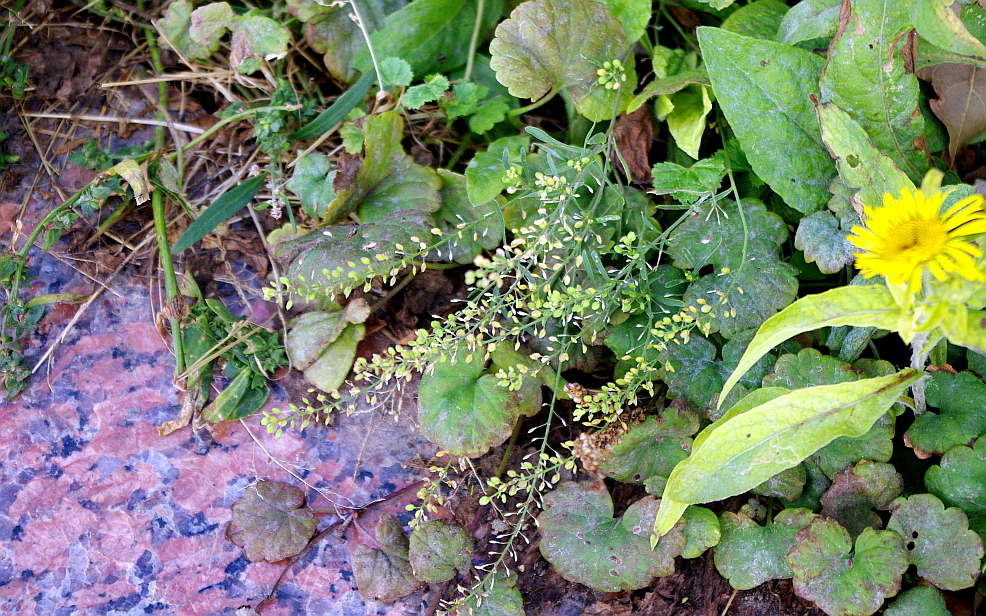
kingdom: Plantae
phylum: Tracheophyta
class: Magnoliopsida
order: Brassicales
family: Brassicaceae
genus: Lepidium
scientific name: Lepidium ruderale
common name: Narrow-leaved pepperwort
